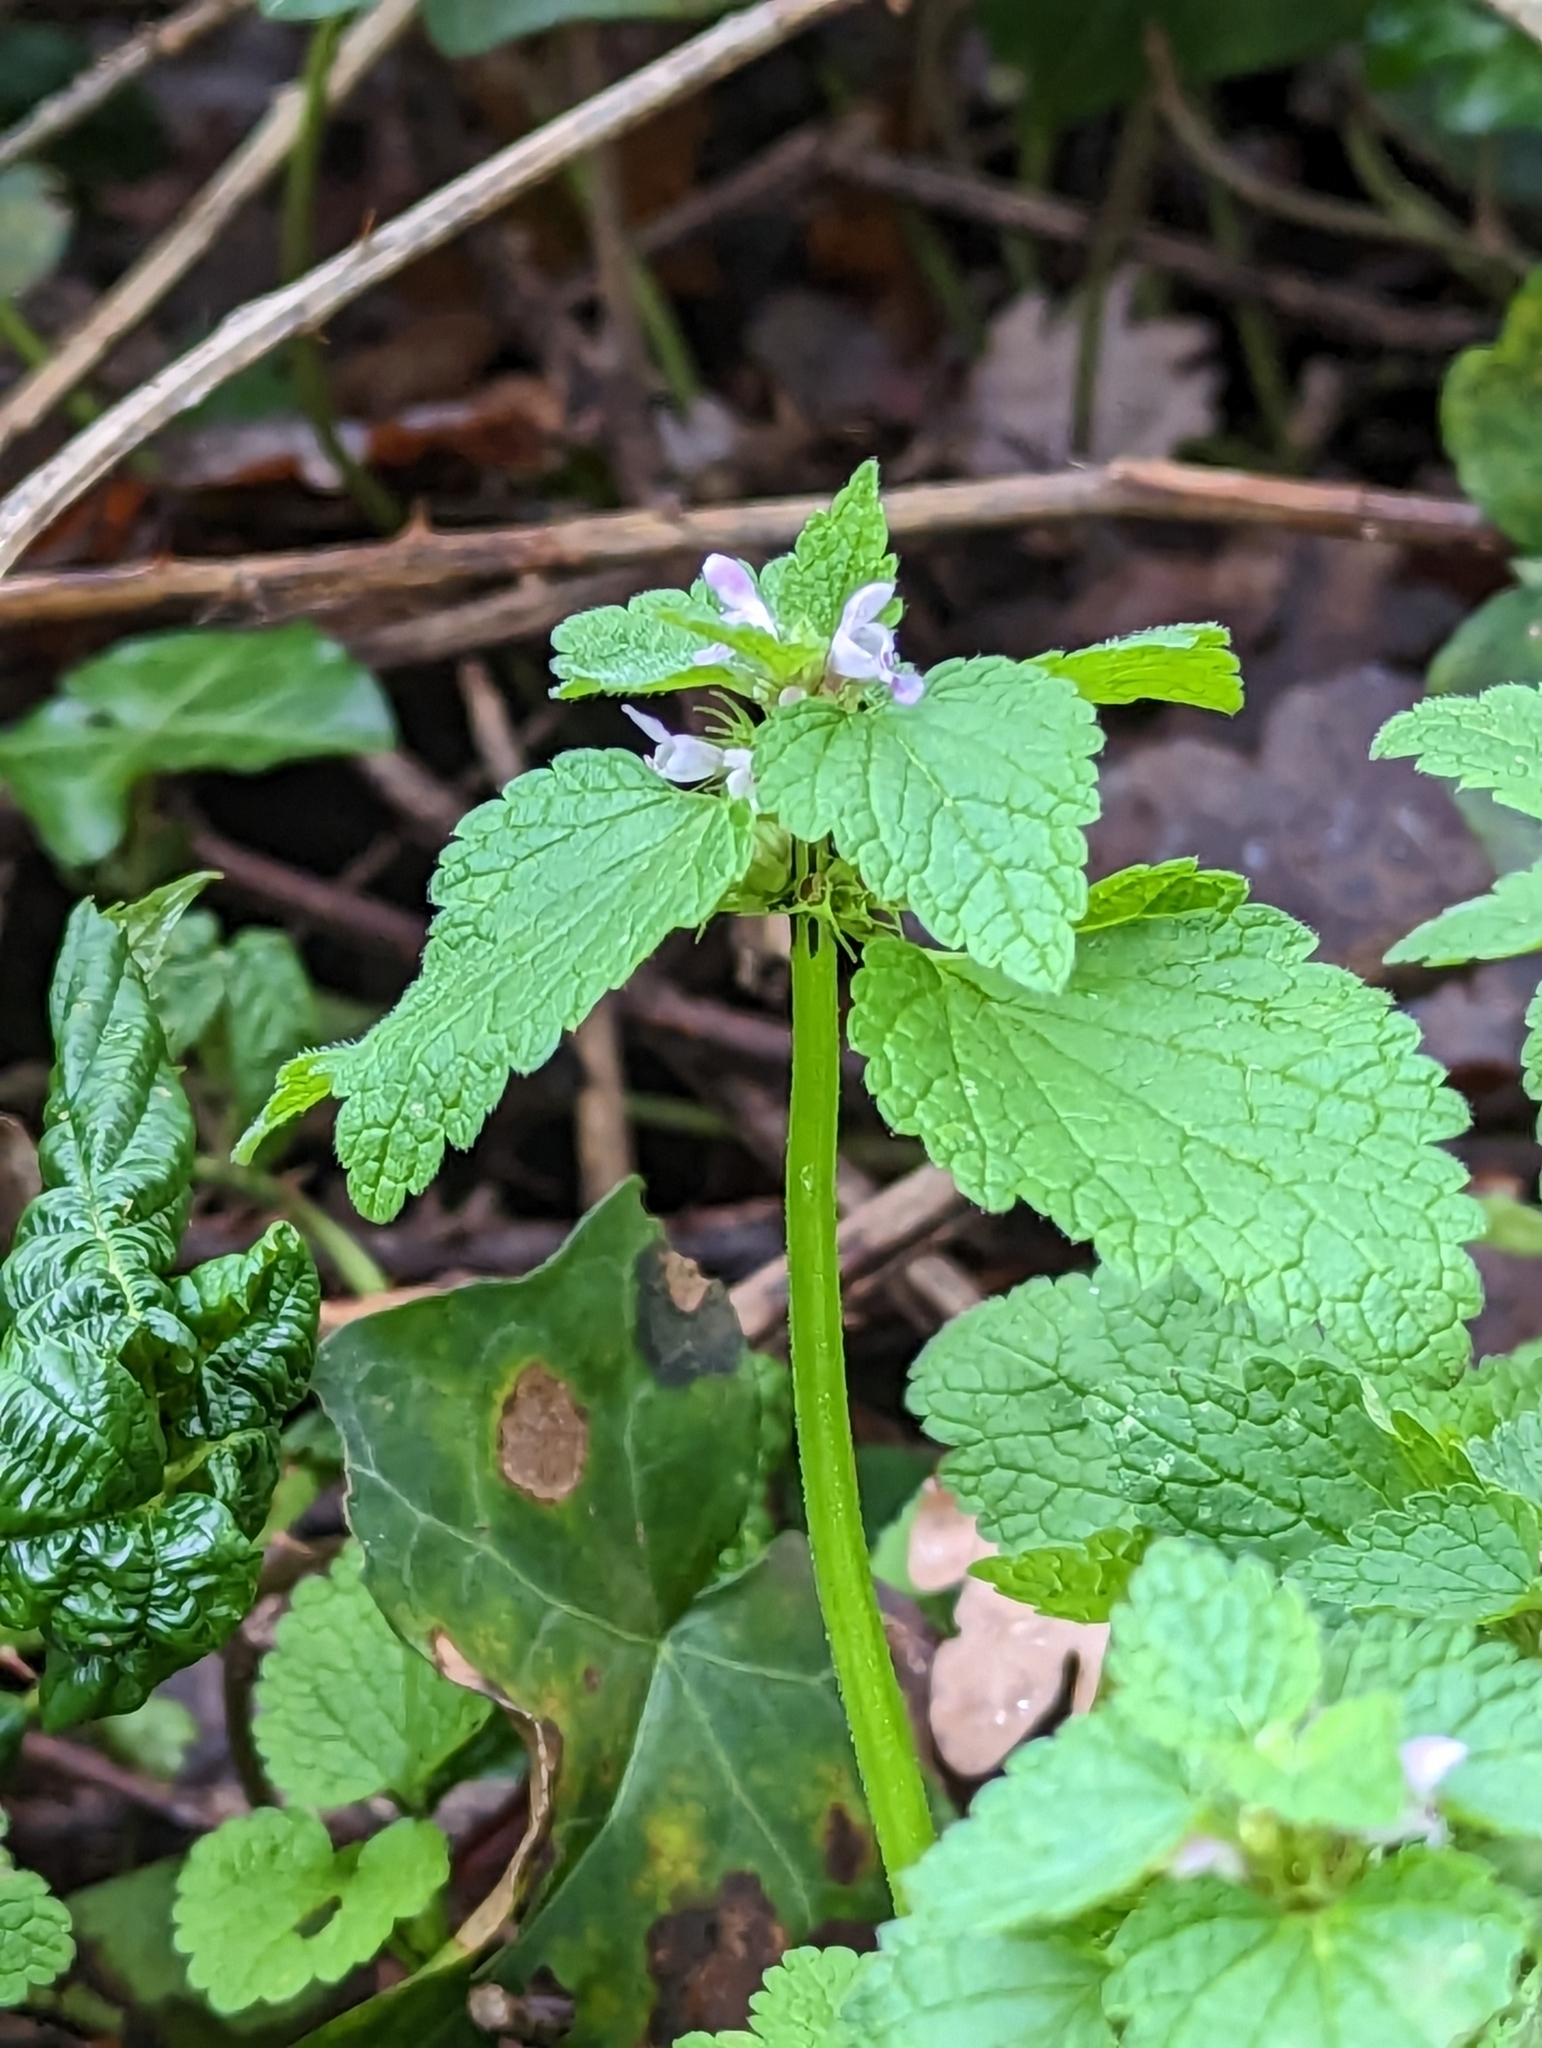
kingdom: Plantae
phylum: Tracheophyta
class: Magnoliopsida
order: Lamiales
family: Lamiaceae
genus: Lamium
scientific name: Lamium purpureum
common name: Red dead-nettle
